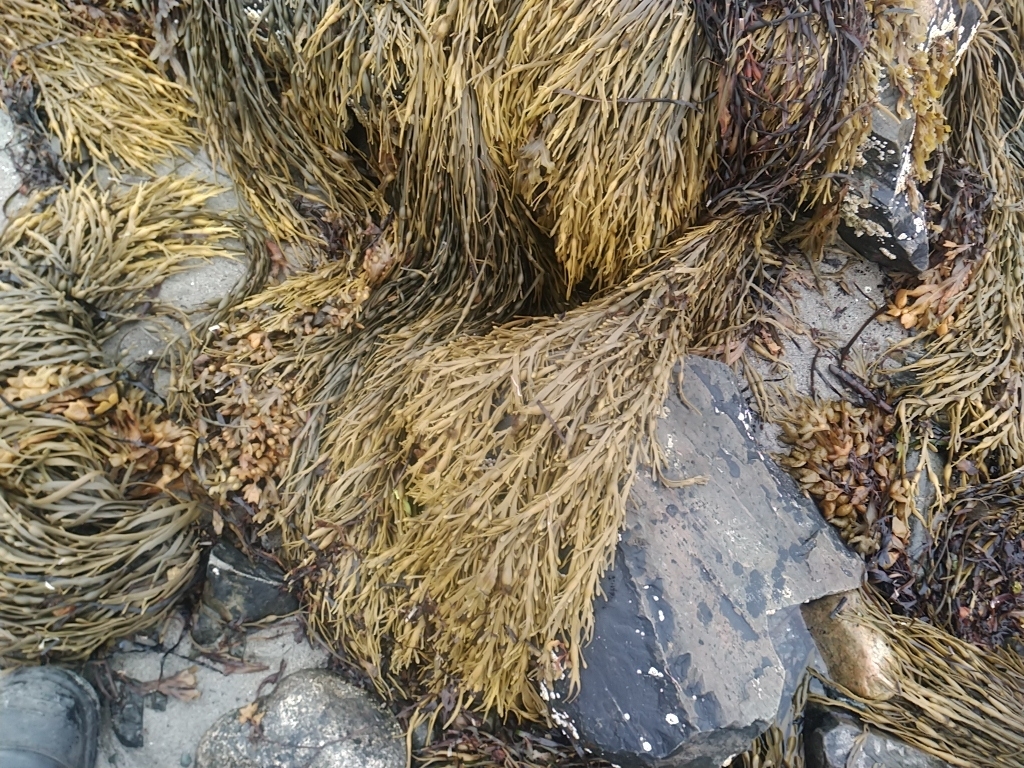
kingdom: Chromista
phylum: Ochrophyta
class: Phaeophyceae
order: Fucales
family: Fucaceae
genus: Ascophyllum
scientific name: Ascophyllum nodosum
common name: Knotted wrack
